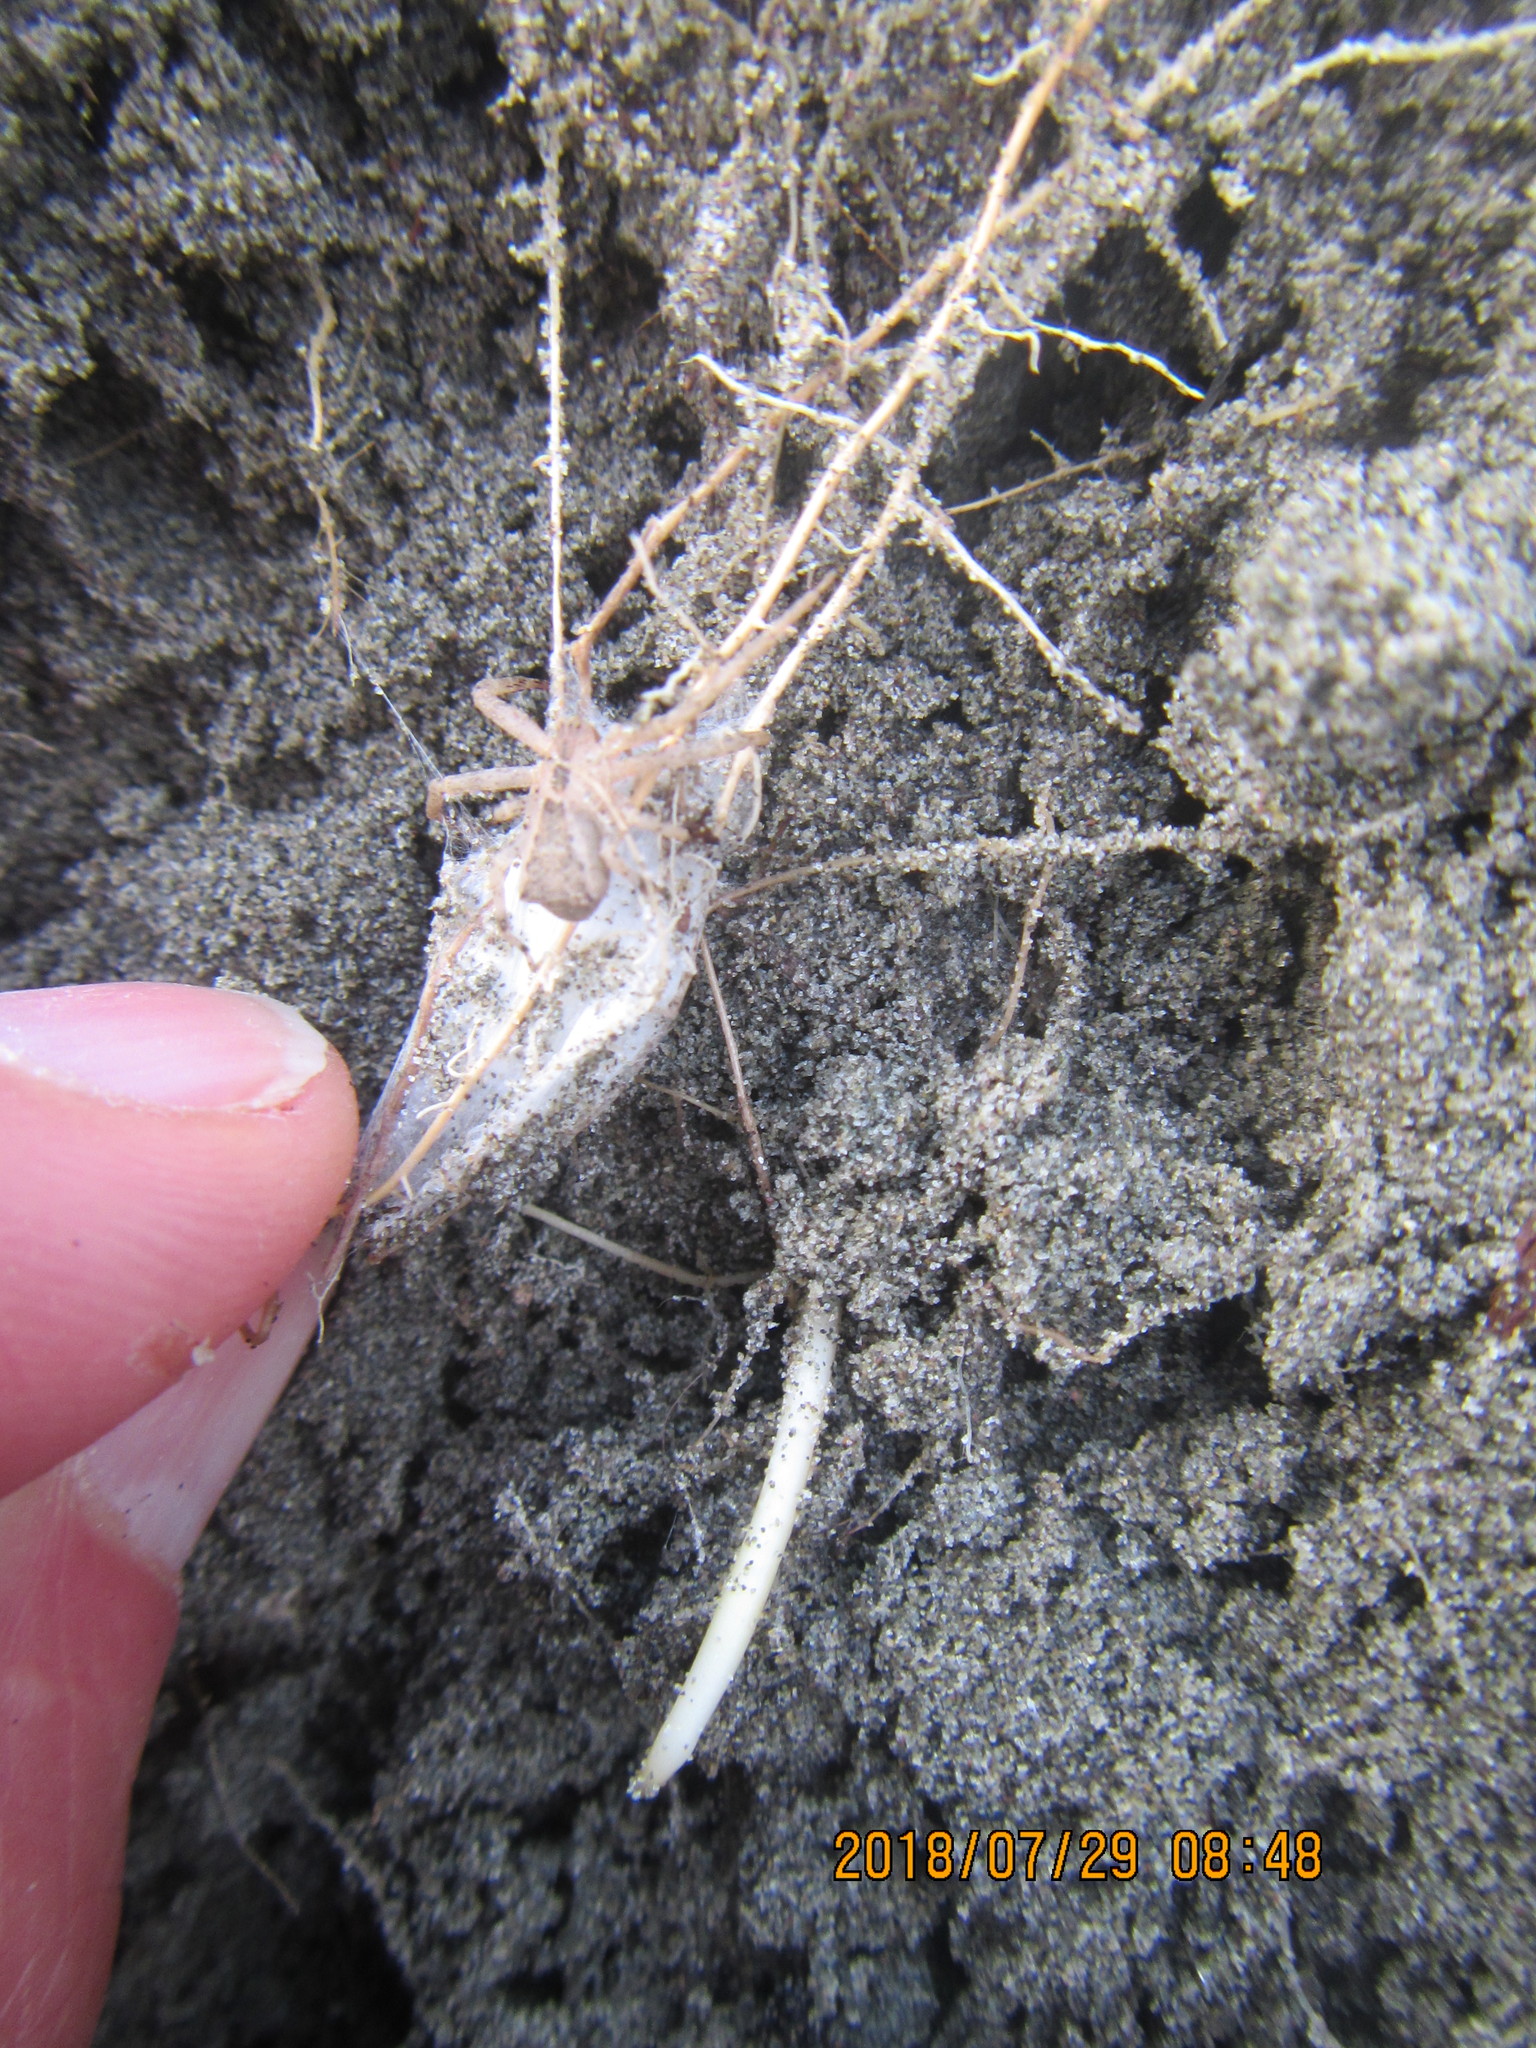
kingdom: Animalia
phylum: Arthropoda
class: Arachnida
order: Araneae
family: Thomisidae
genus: Sidymella
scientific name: Sidymella trapezia
